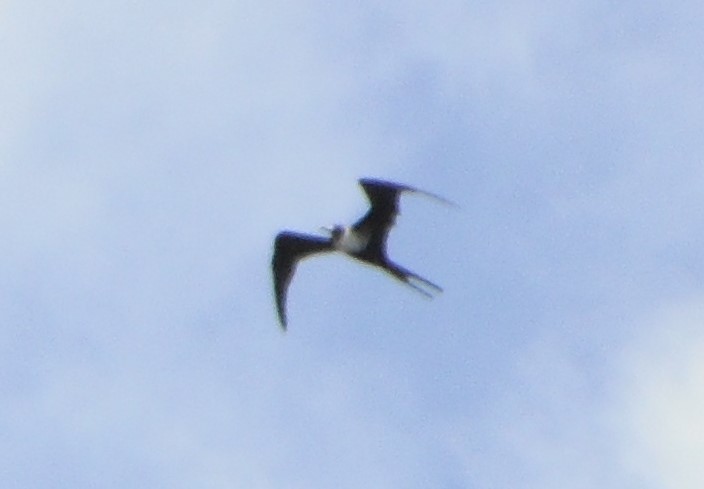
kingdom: Animalia
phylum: Chordata
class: Aves
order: Suliformes
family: Fregatidae
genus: Fregata
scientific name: Fregata magnificens
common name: Magnificent frigatebird
